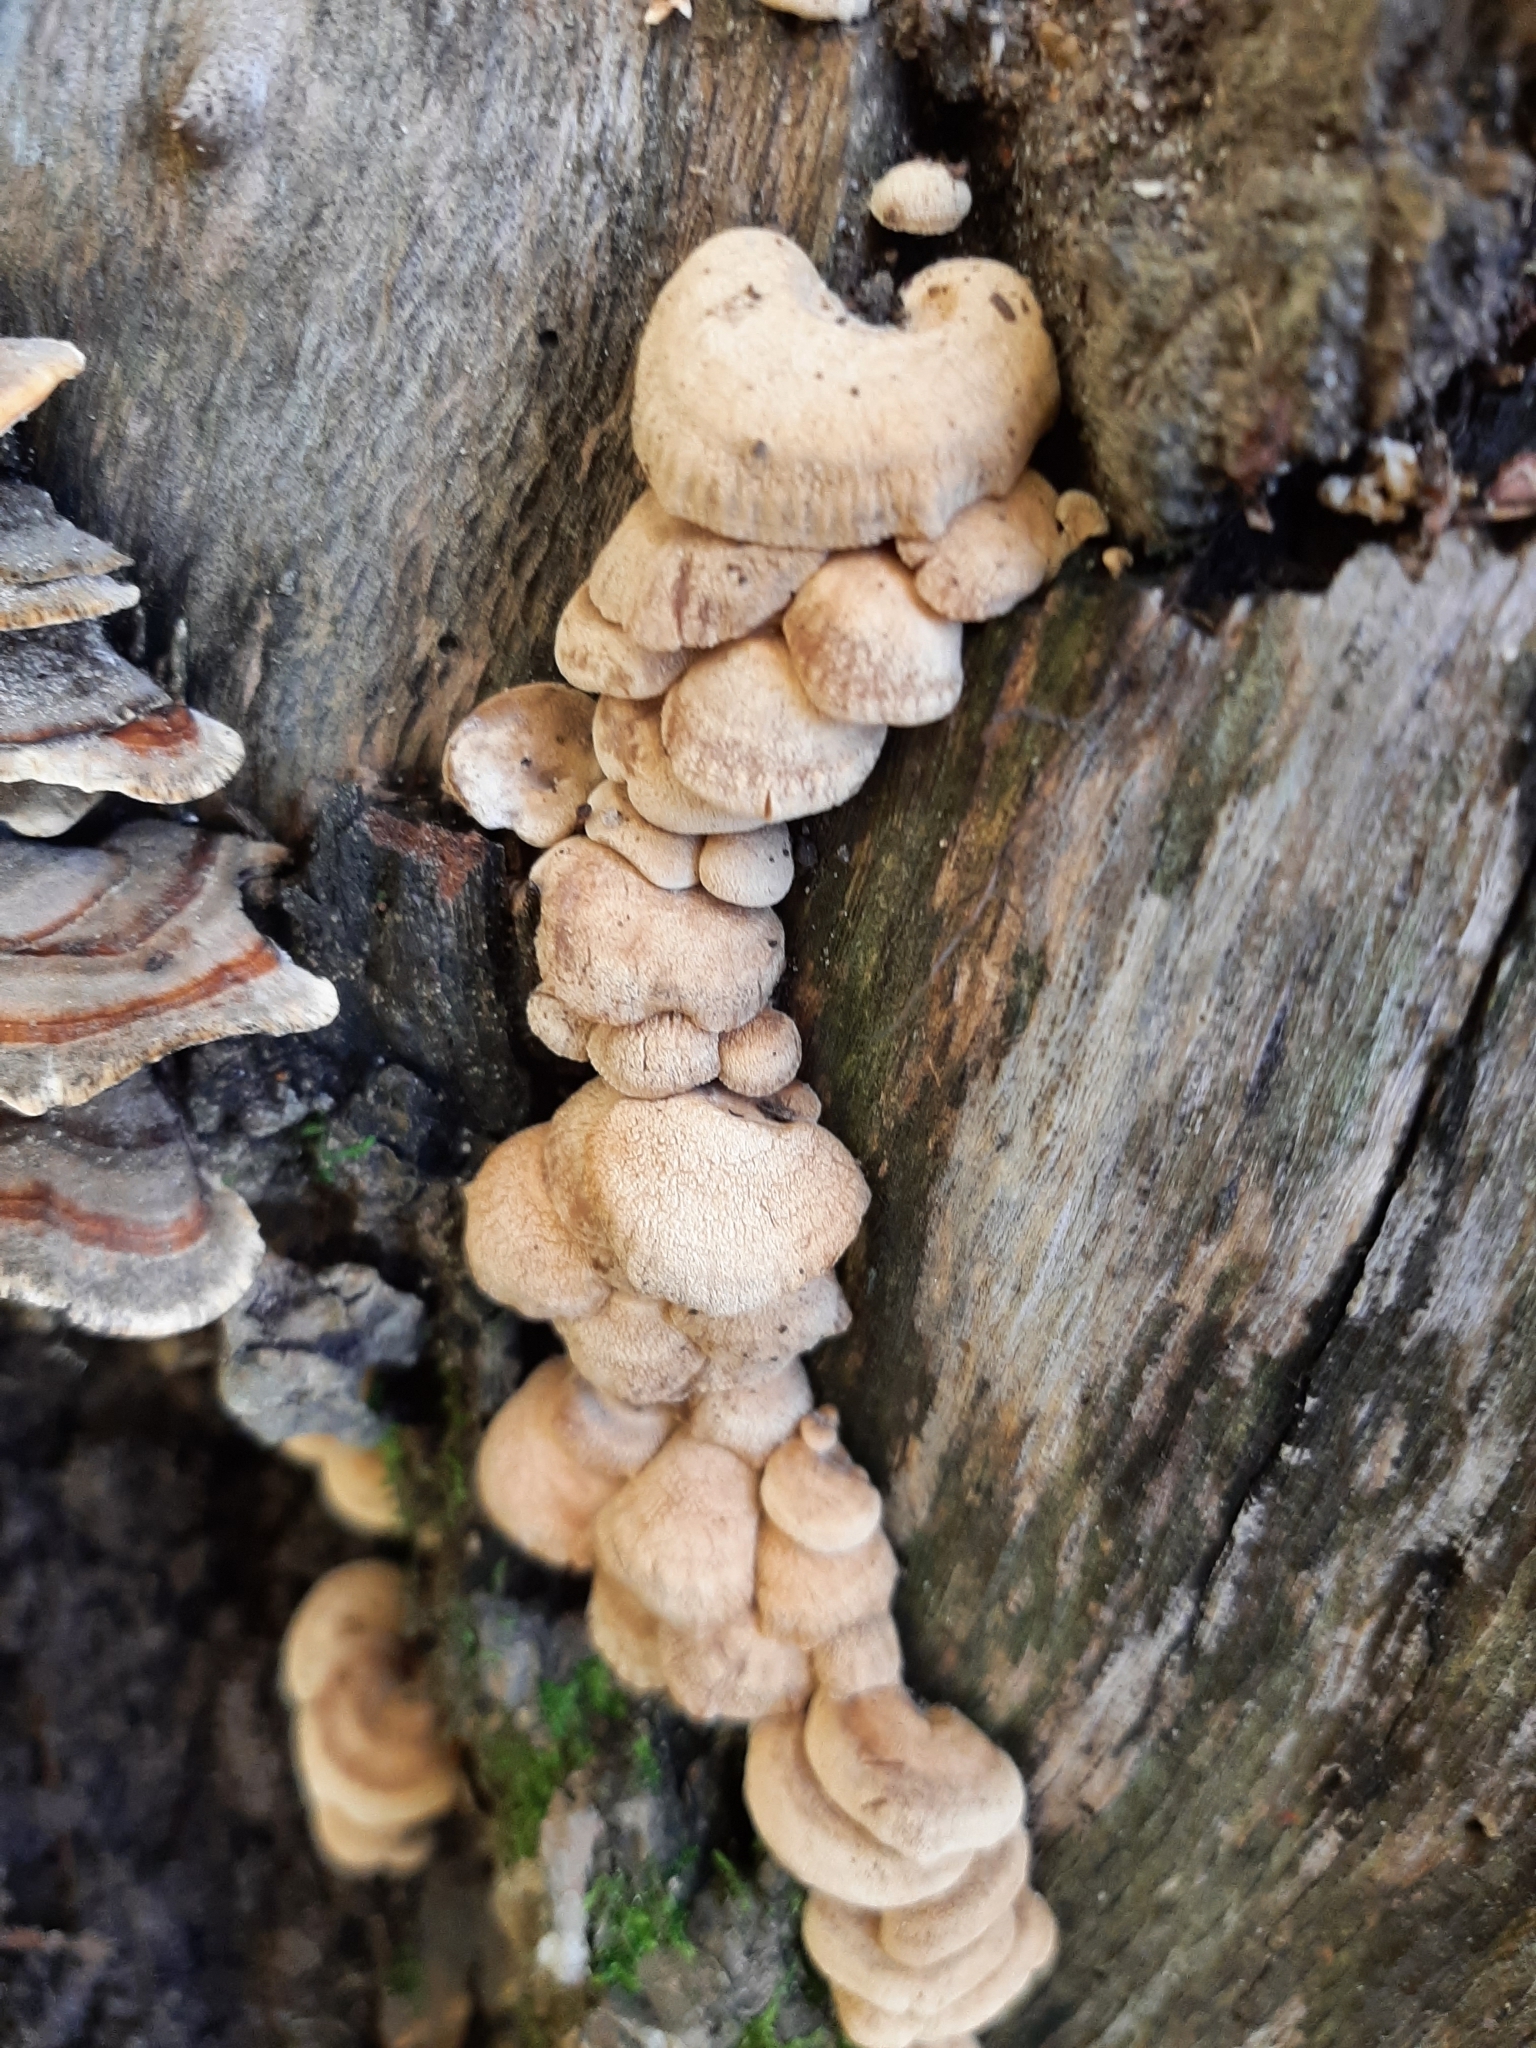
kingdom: Fungi
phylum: Basidiomycota
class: Agaricomycetes
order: Agaricales
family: Mycenaceae
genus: Panellus
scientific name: Panellus stipticus
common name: Bitter oysterling
